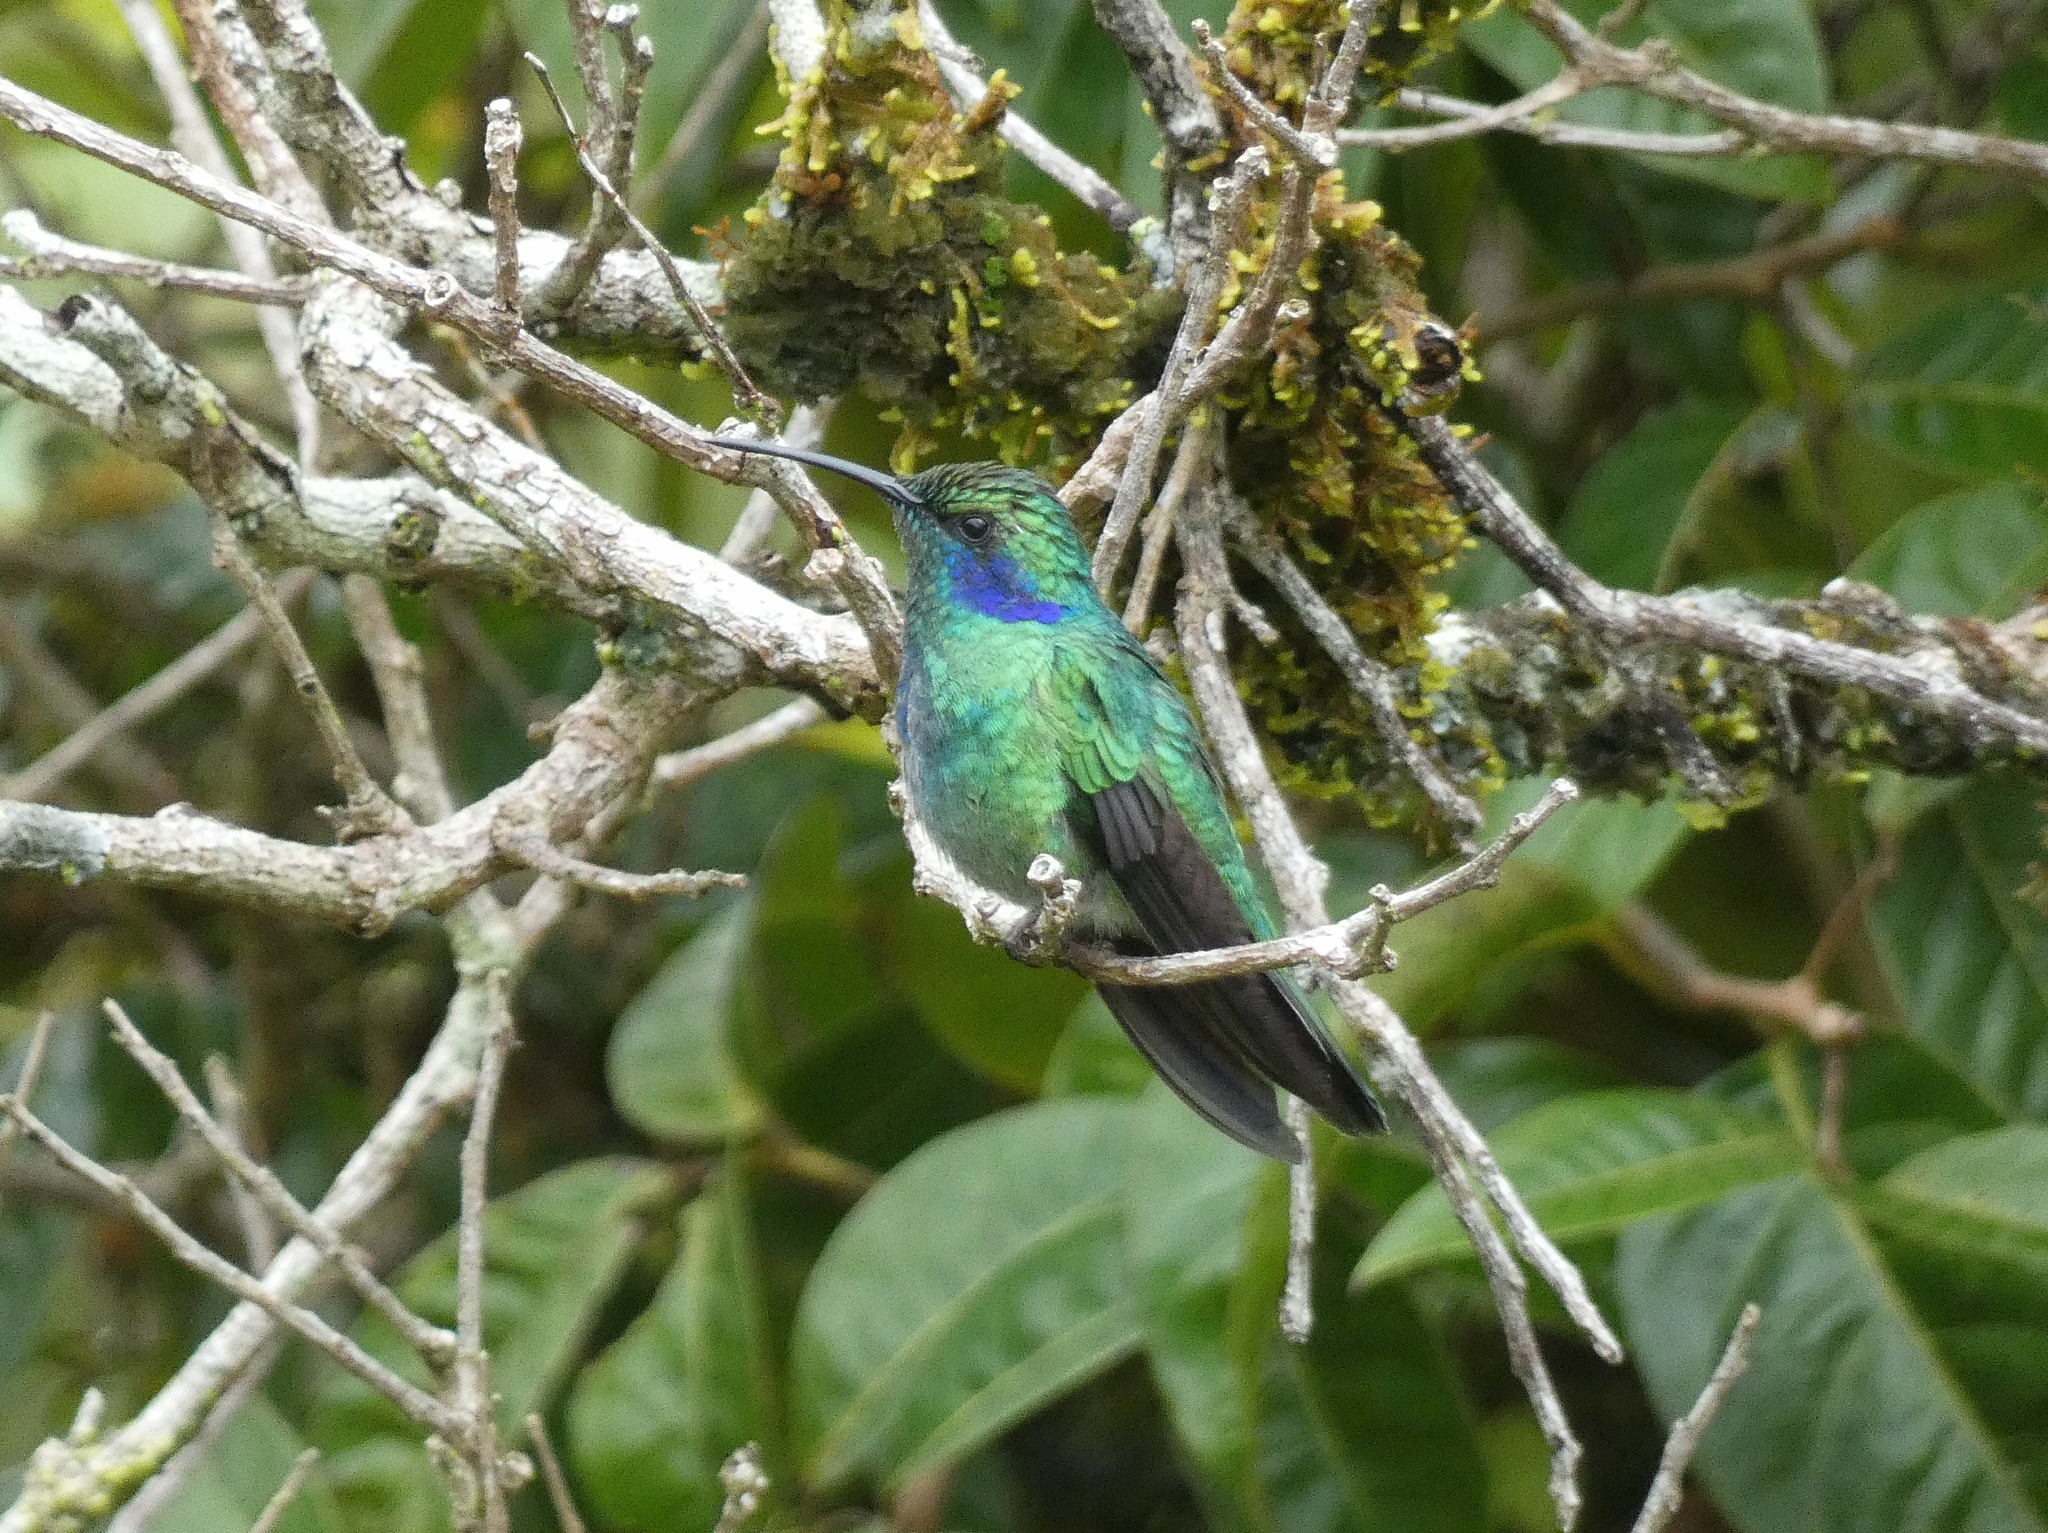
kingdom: Animalia
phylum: Chordata
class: Aves
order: Apodiformes
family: Trochilidae
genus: Colibri
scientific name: Colibri cyanotus
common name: Lesser violetear
